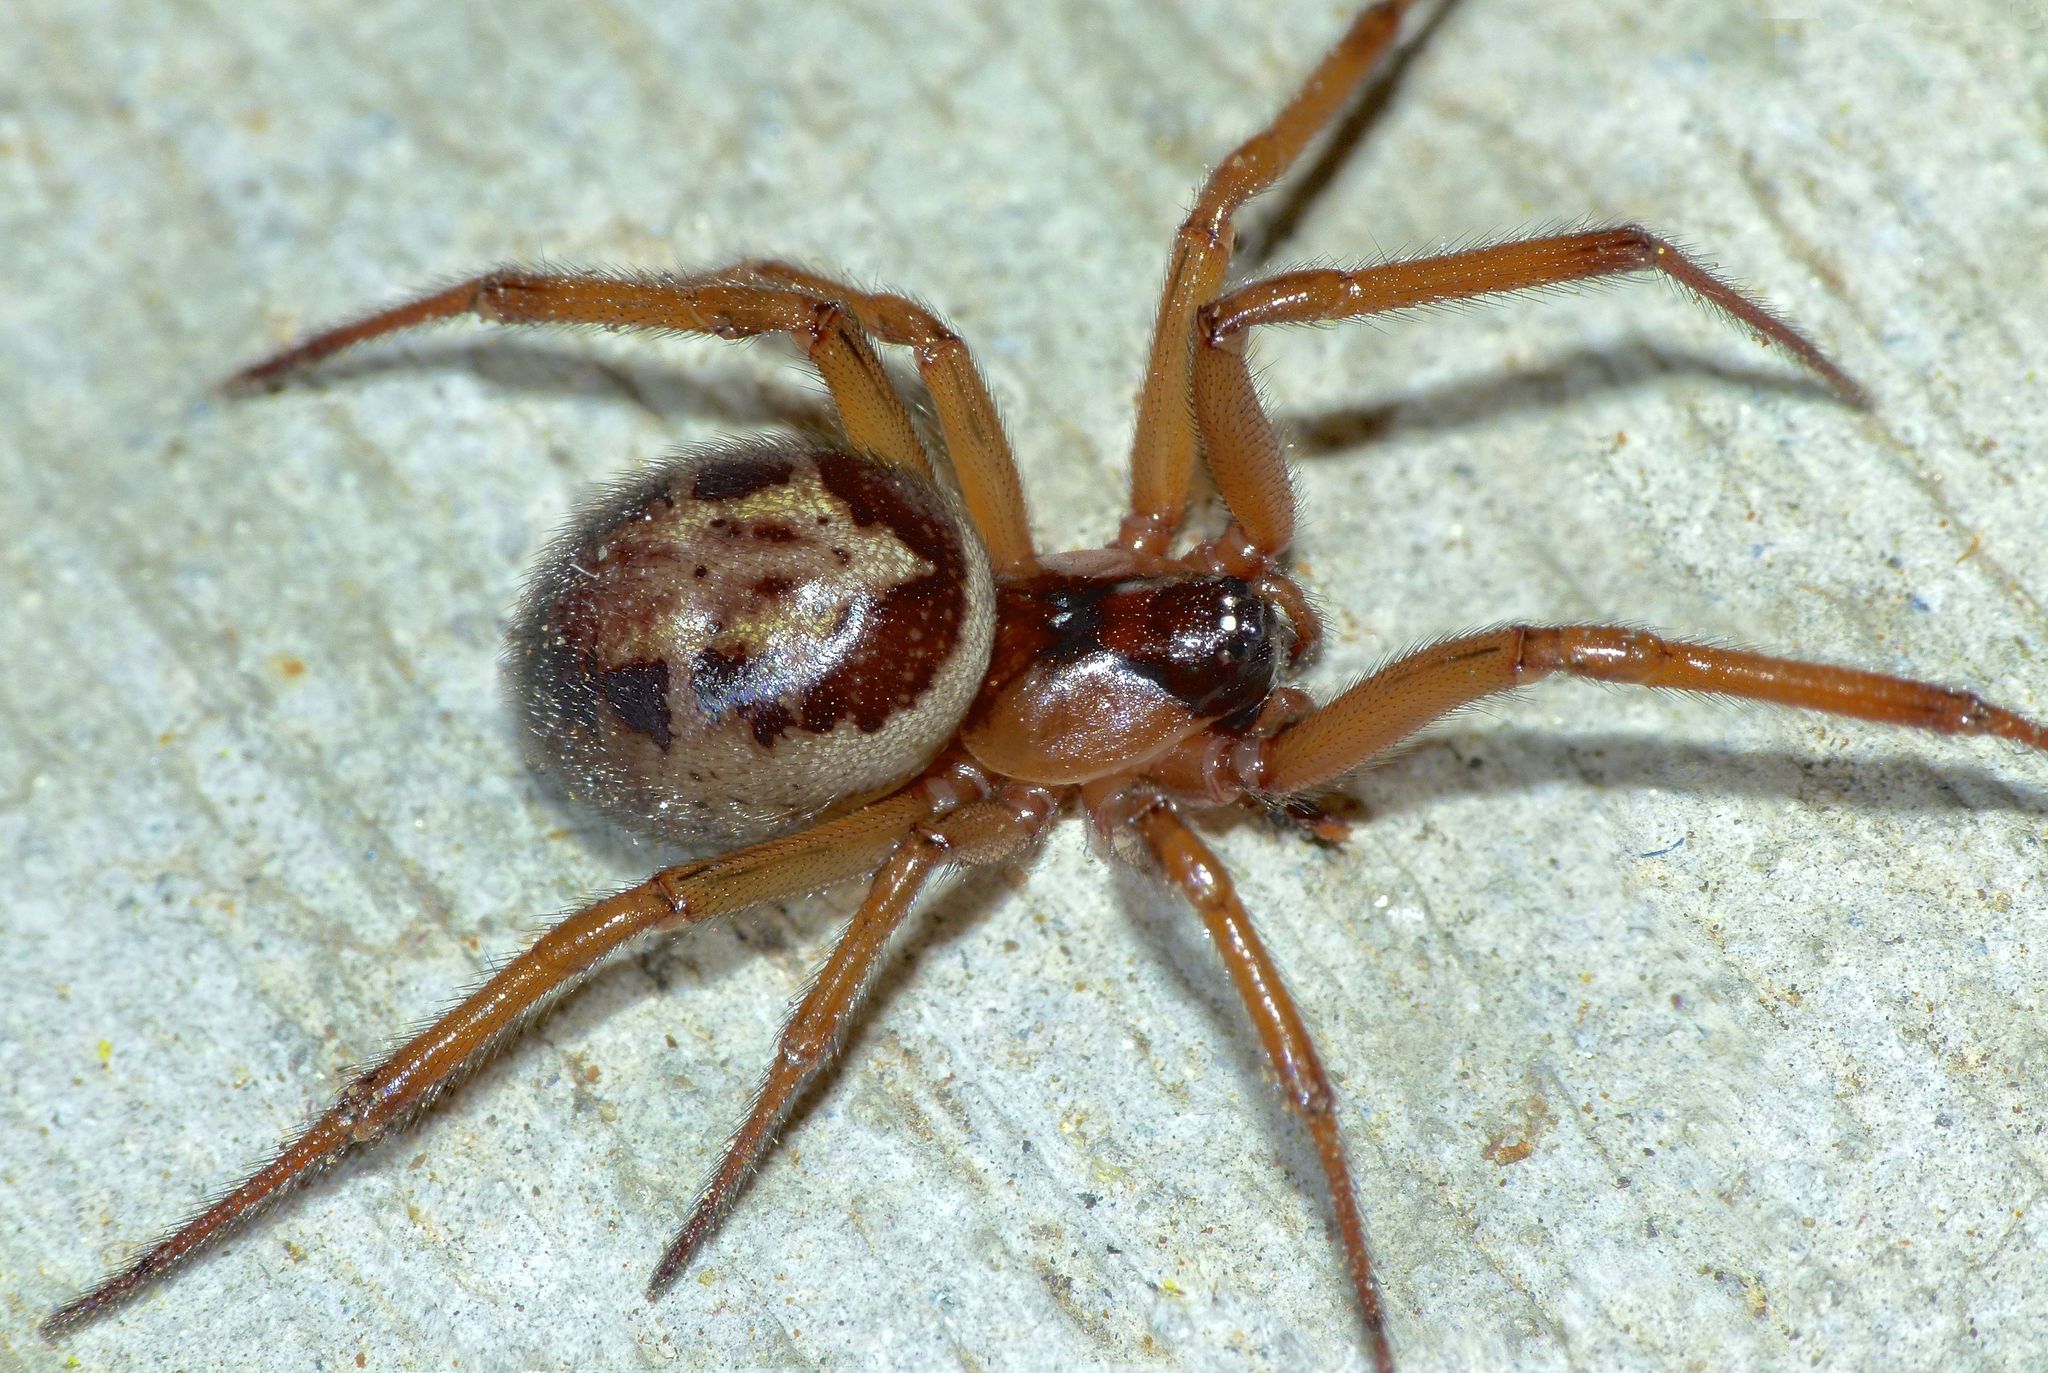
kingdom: Animalia
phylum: Arthropoda
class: Arachnida
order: Araneae
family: Theridiidae
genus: Steatoda
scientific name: Steatoda nobilis
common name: Cobweb weaver
